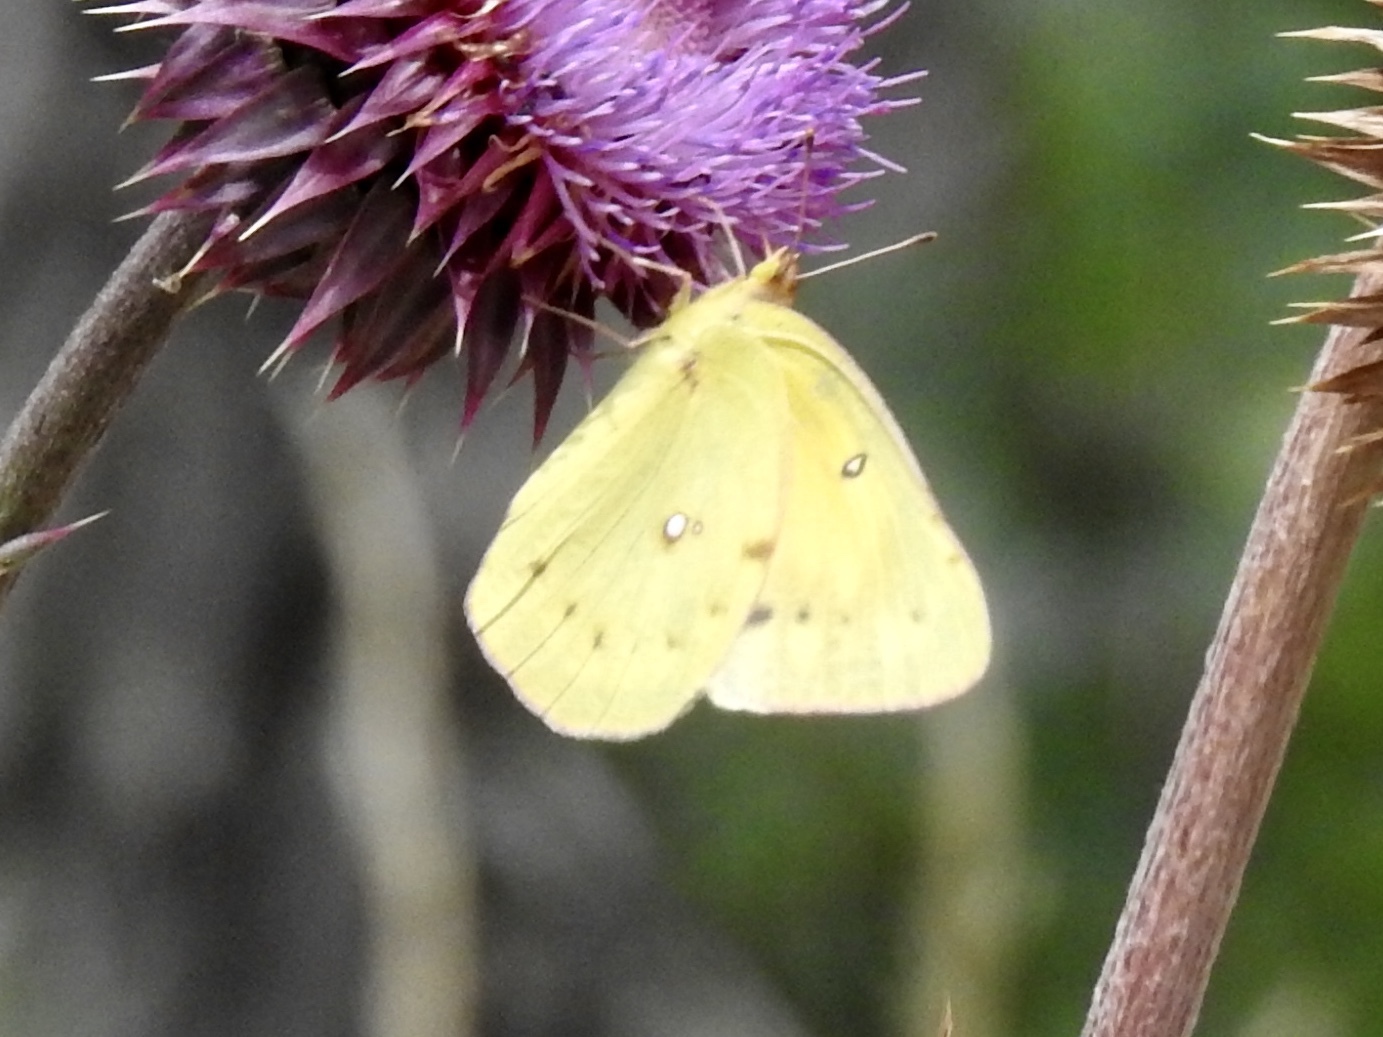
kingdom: Animalia
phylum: Arthropoda
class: Insecta
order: Lepidoptera
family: Pieridae
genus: Colias
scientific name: Colias eurytheme
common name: Alfalfa butterfly
